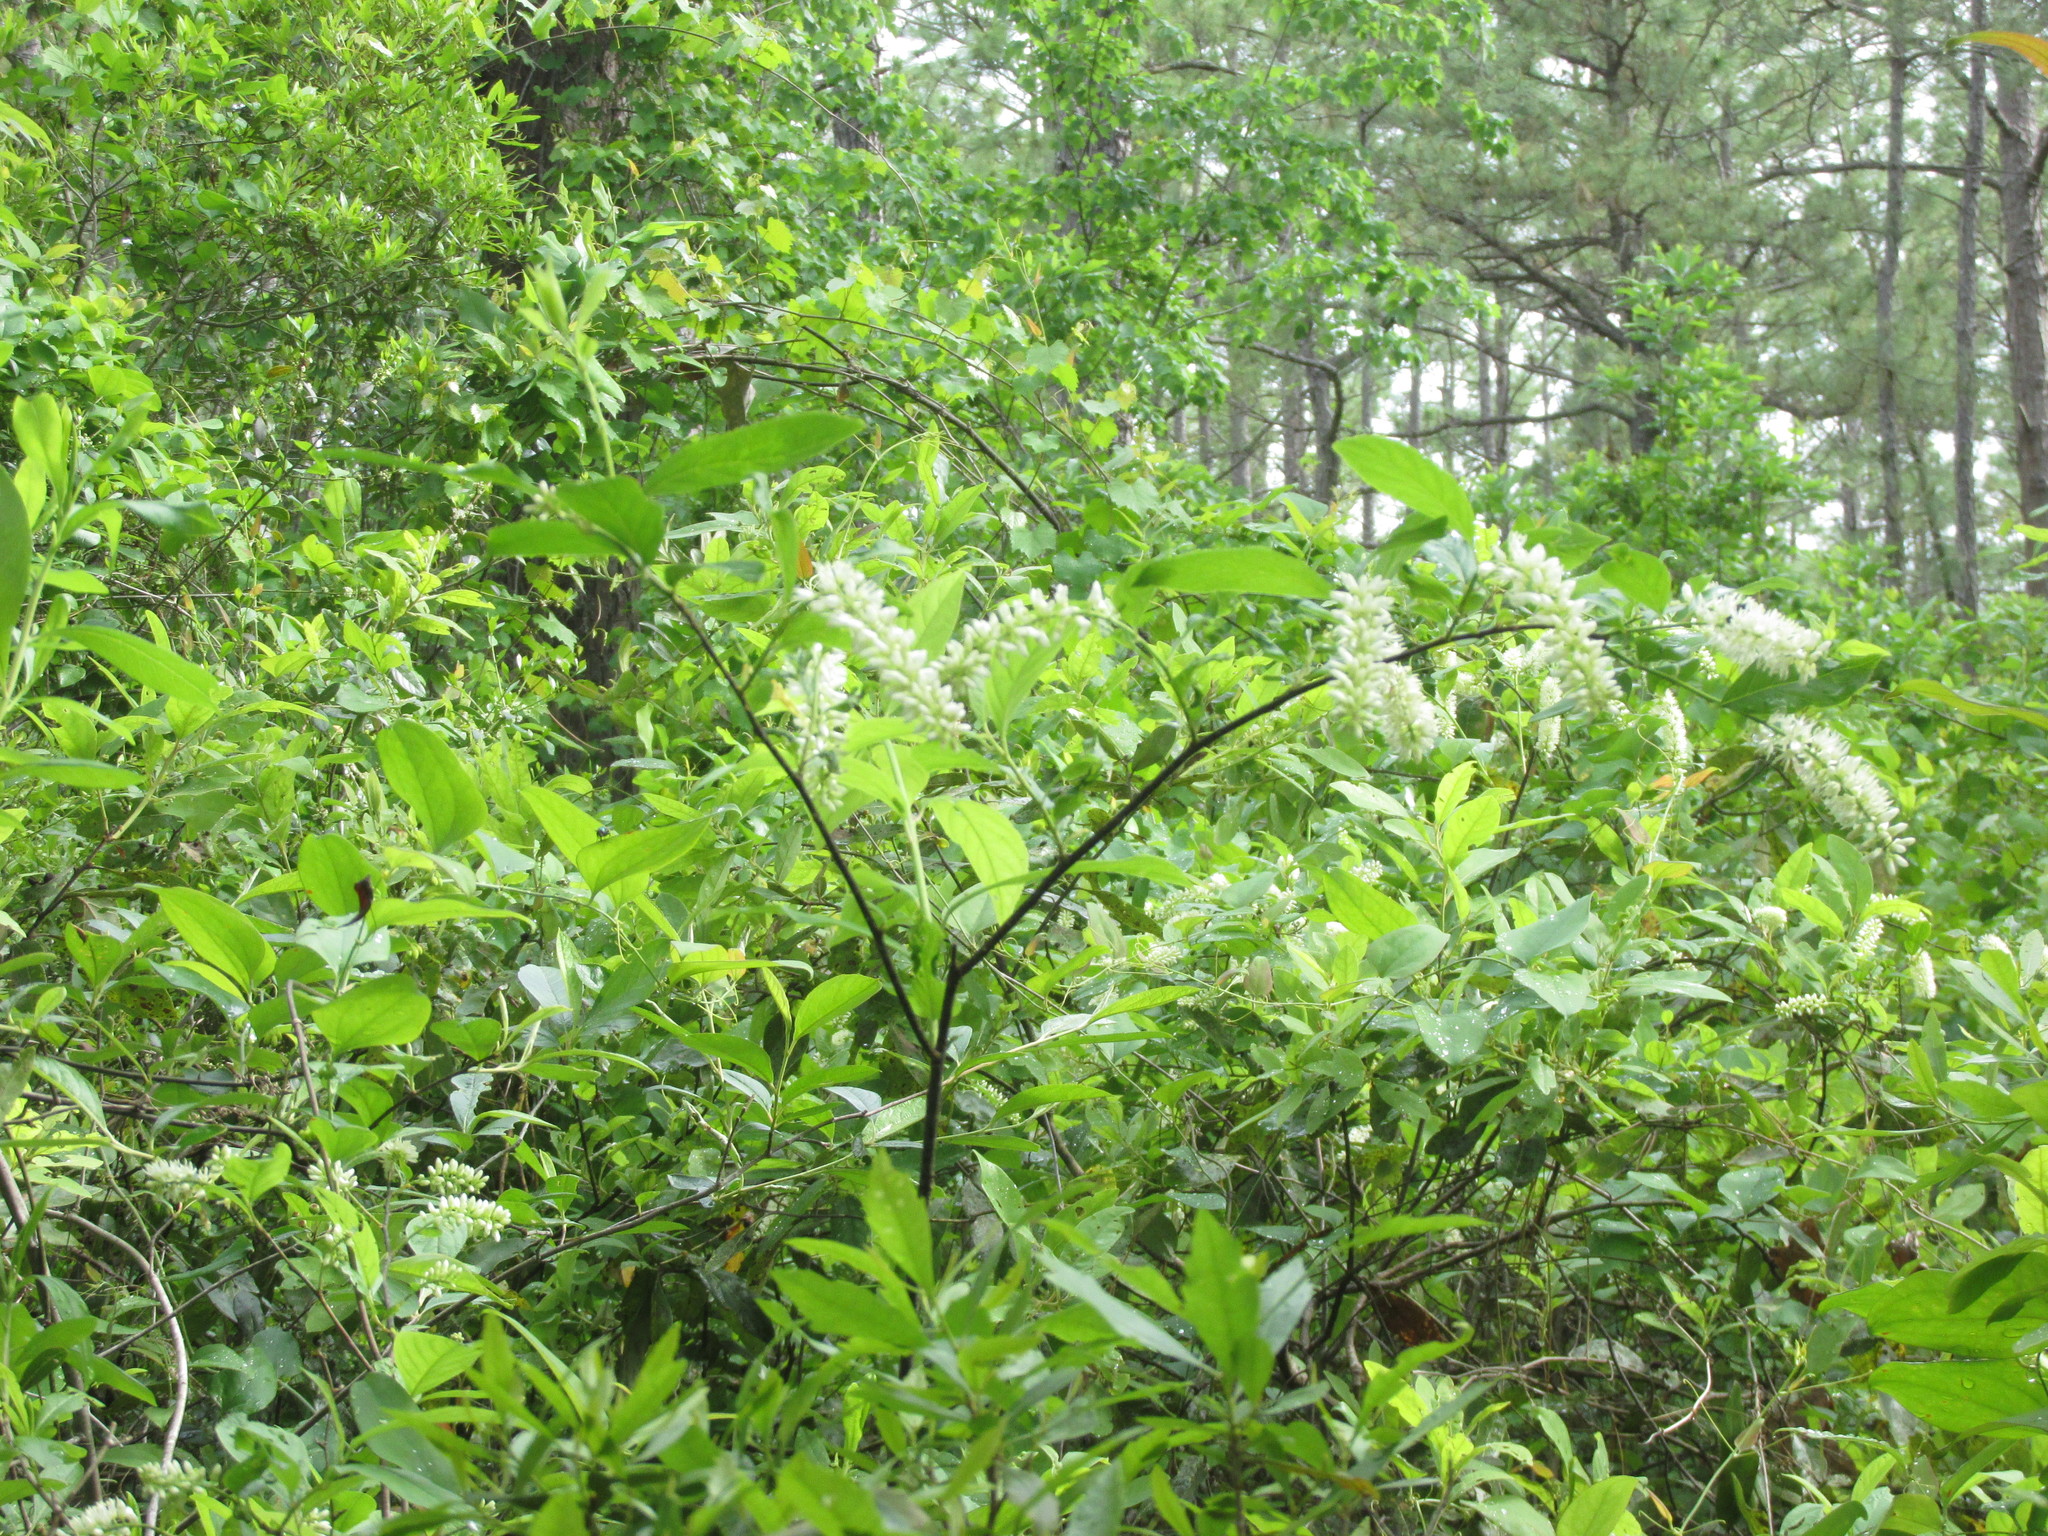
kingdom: Plantae
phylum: Tracheophyta
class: Magnoliopsida
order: Saxifragales
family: Iteaceae
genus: Itea
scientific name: Itea virginica
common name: Sweetspire
